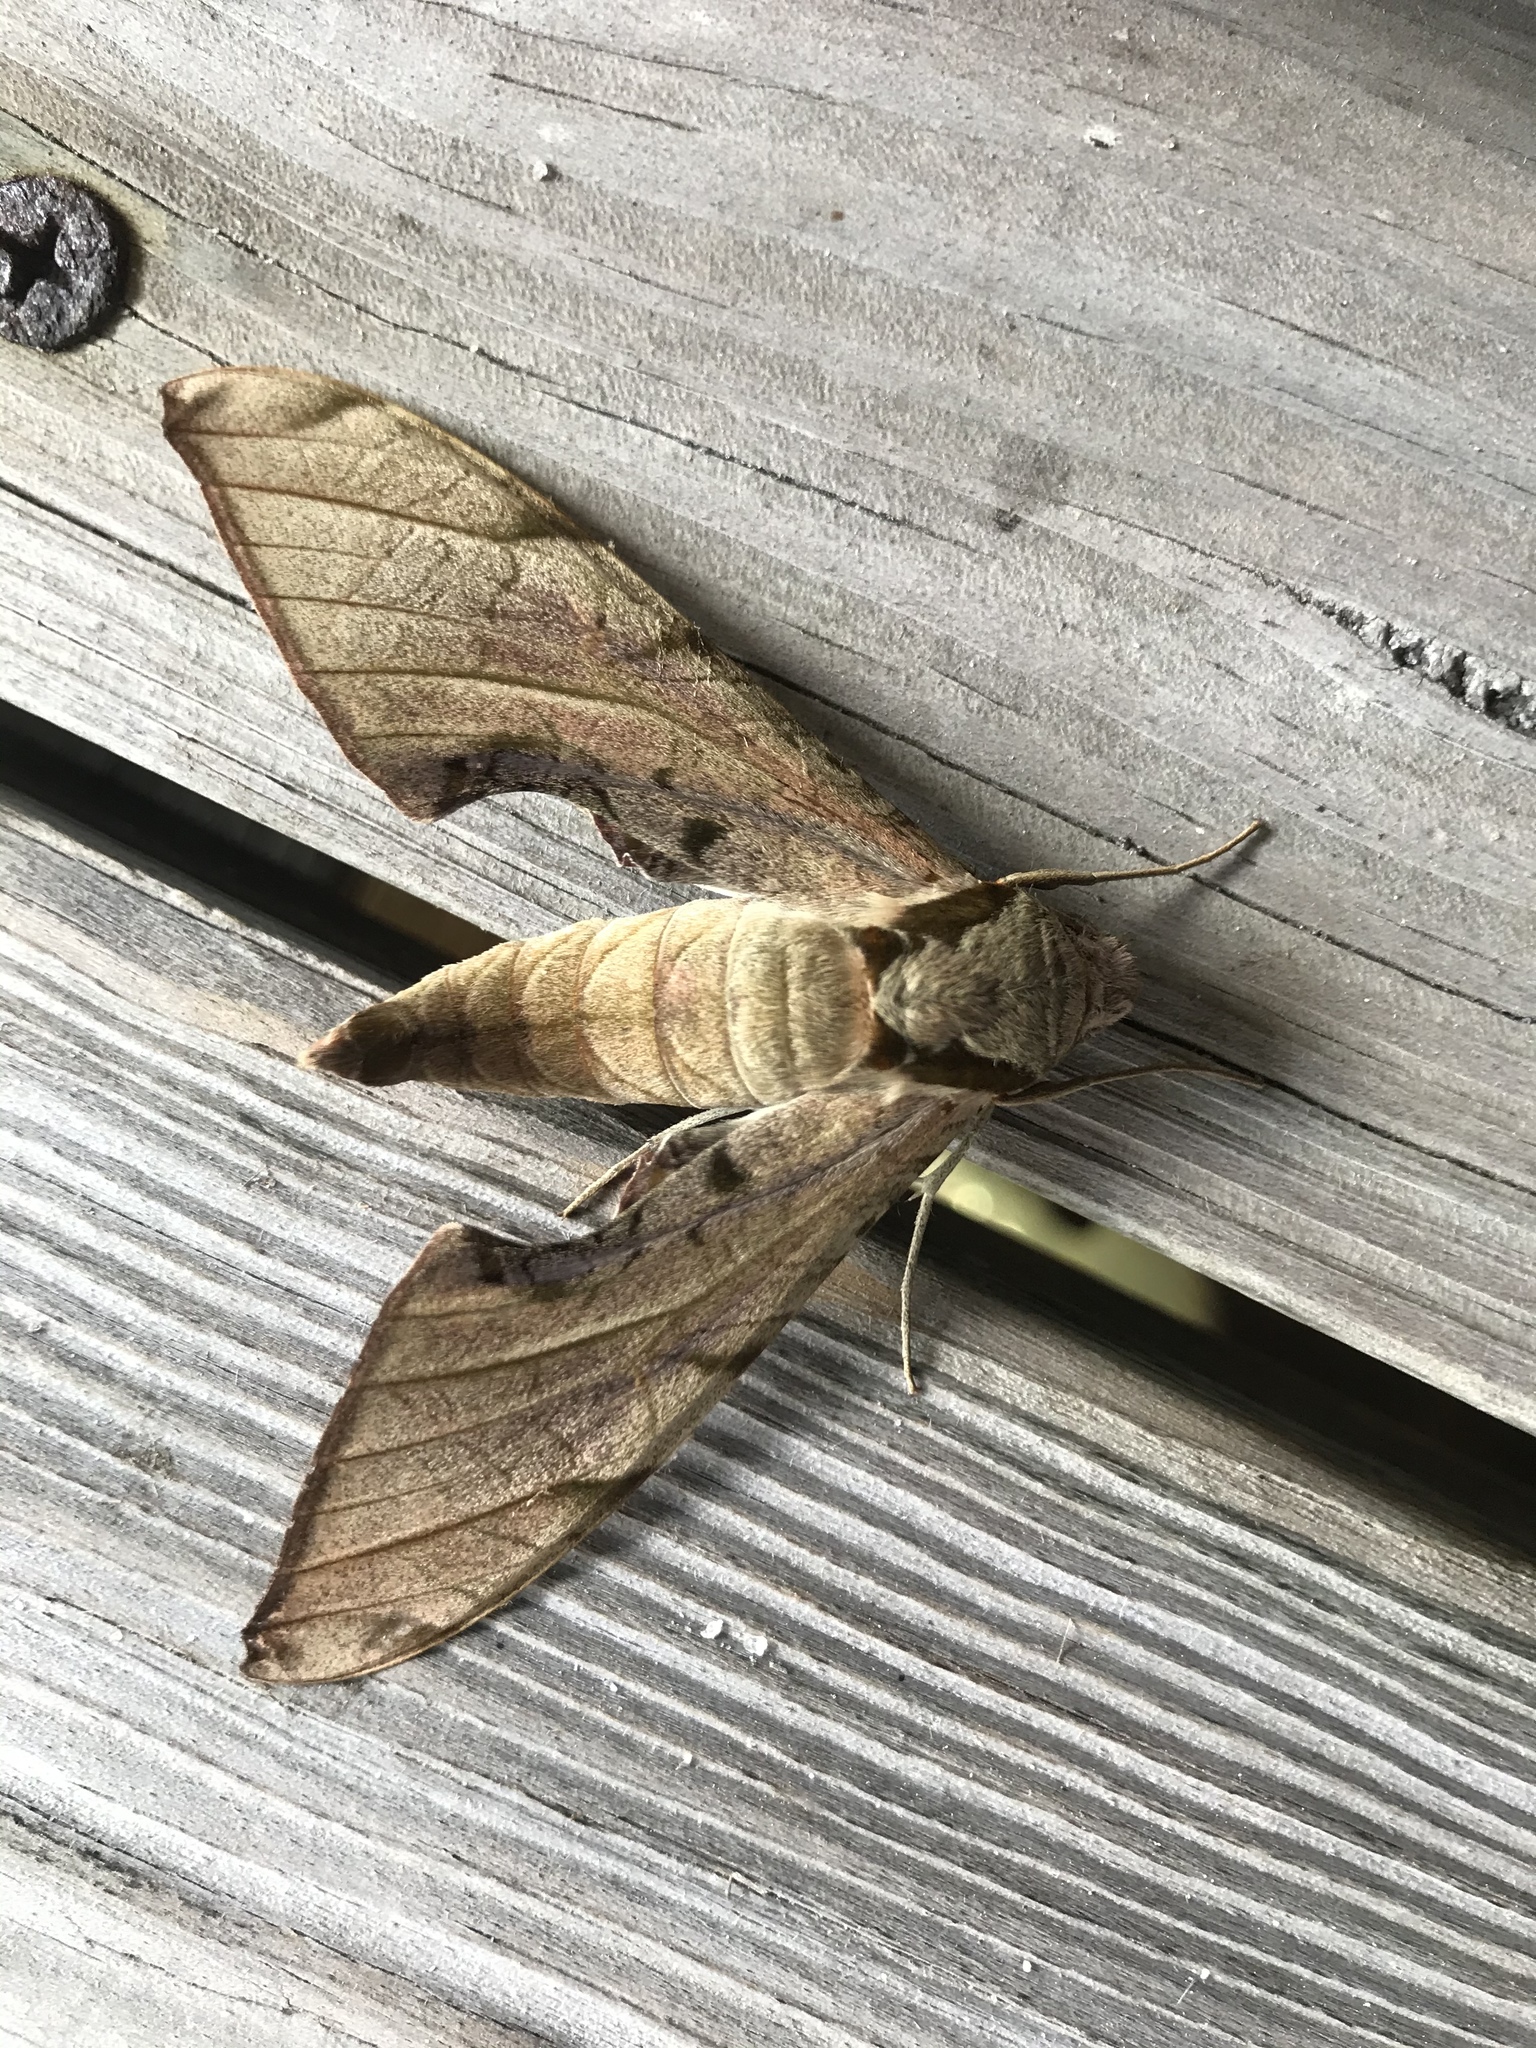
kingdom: Animalia
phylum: Arthropoda
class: Insecta
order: Lepidoptera
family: Sphingidae
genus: Protambulyx
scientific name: Protambulyx strigilis
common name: Streaked sphinx
